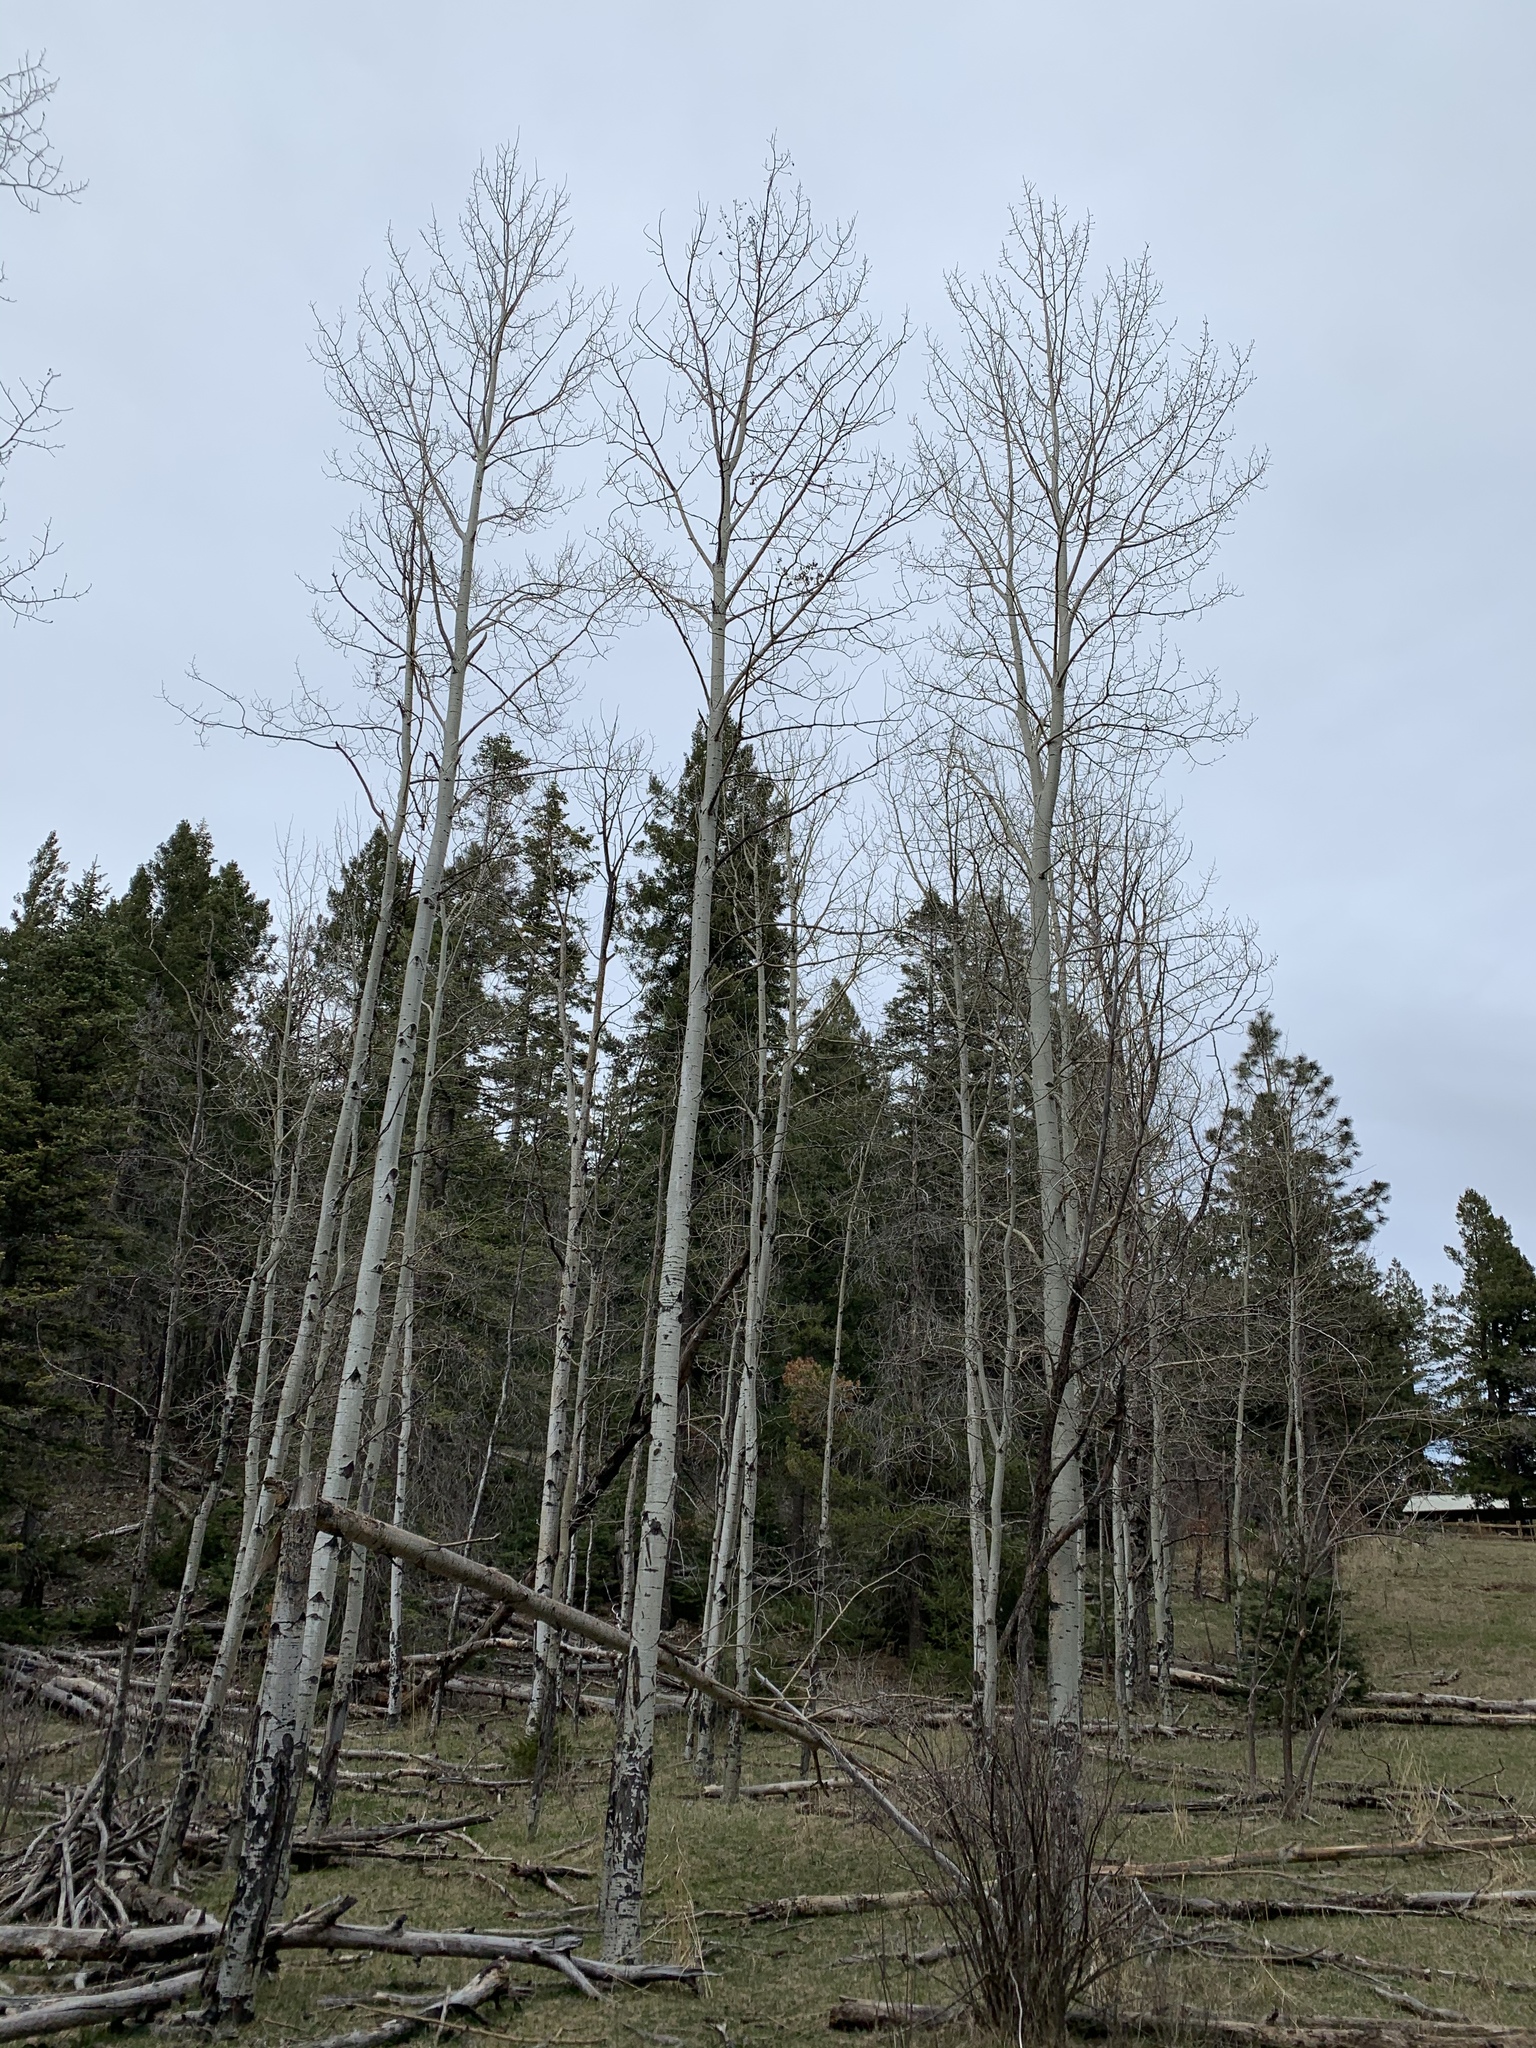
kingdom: Plantae
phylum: Tracheophyta
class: Magnoliopsida
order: Malpighiales
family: Salicaceae
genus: Populus
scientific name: Populus tremuloides
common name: Quaking aspen
